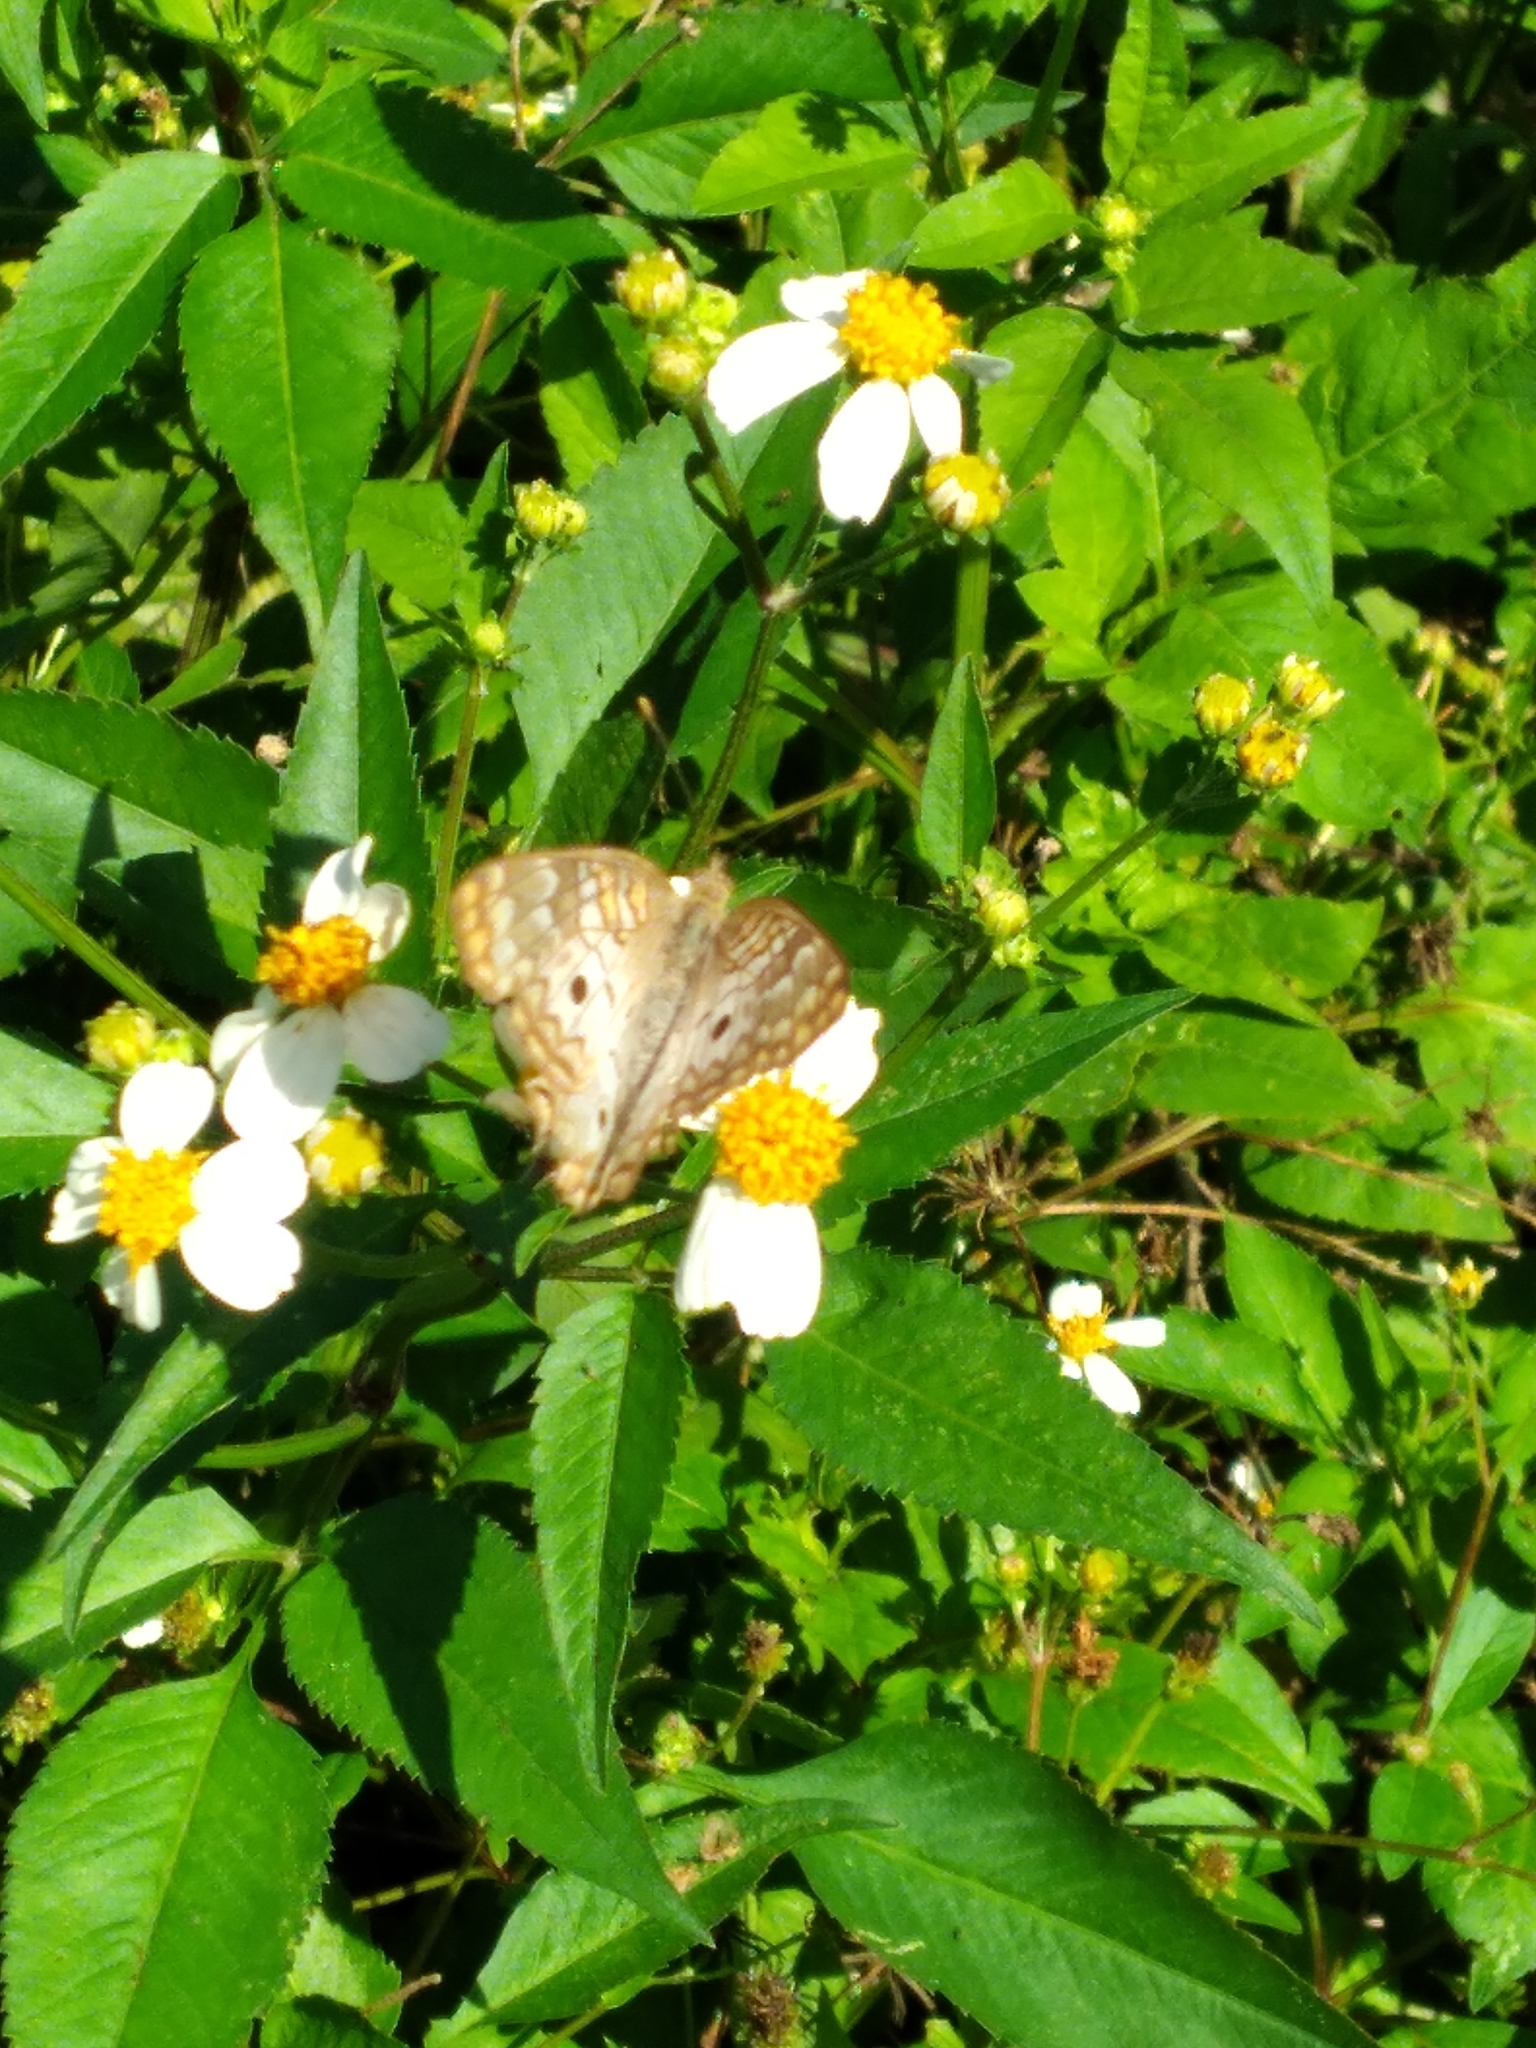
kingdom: Animalia
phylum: Arthropoda
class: Insecta
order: Lepidoptera
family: Nymphalidae
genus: Anartia
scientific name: Anartia jatrophae
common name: White peacock
